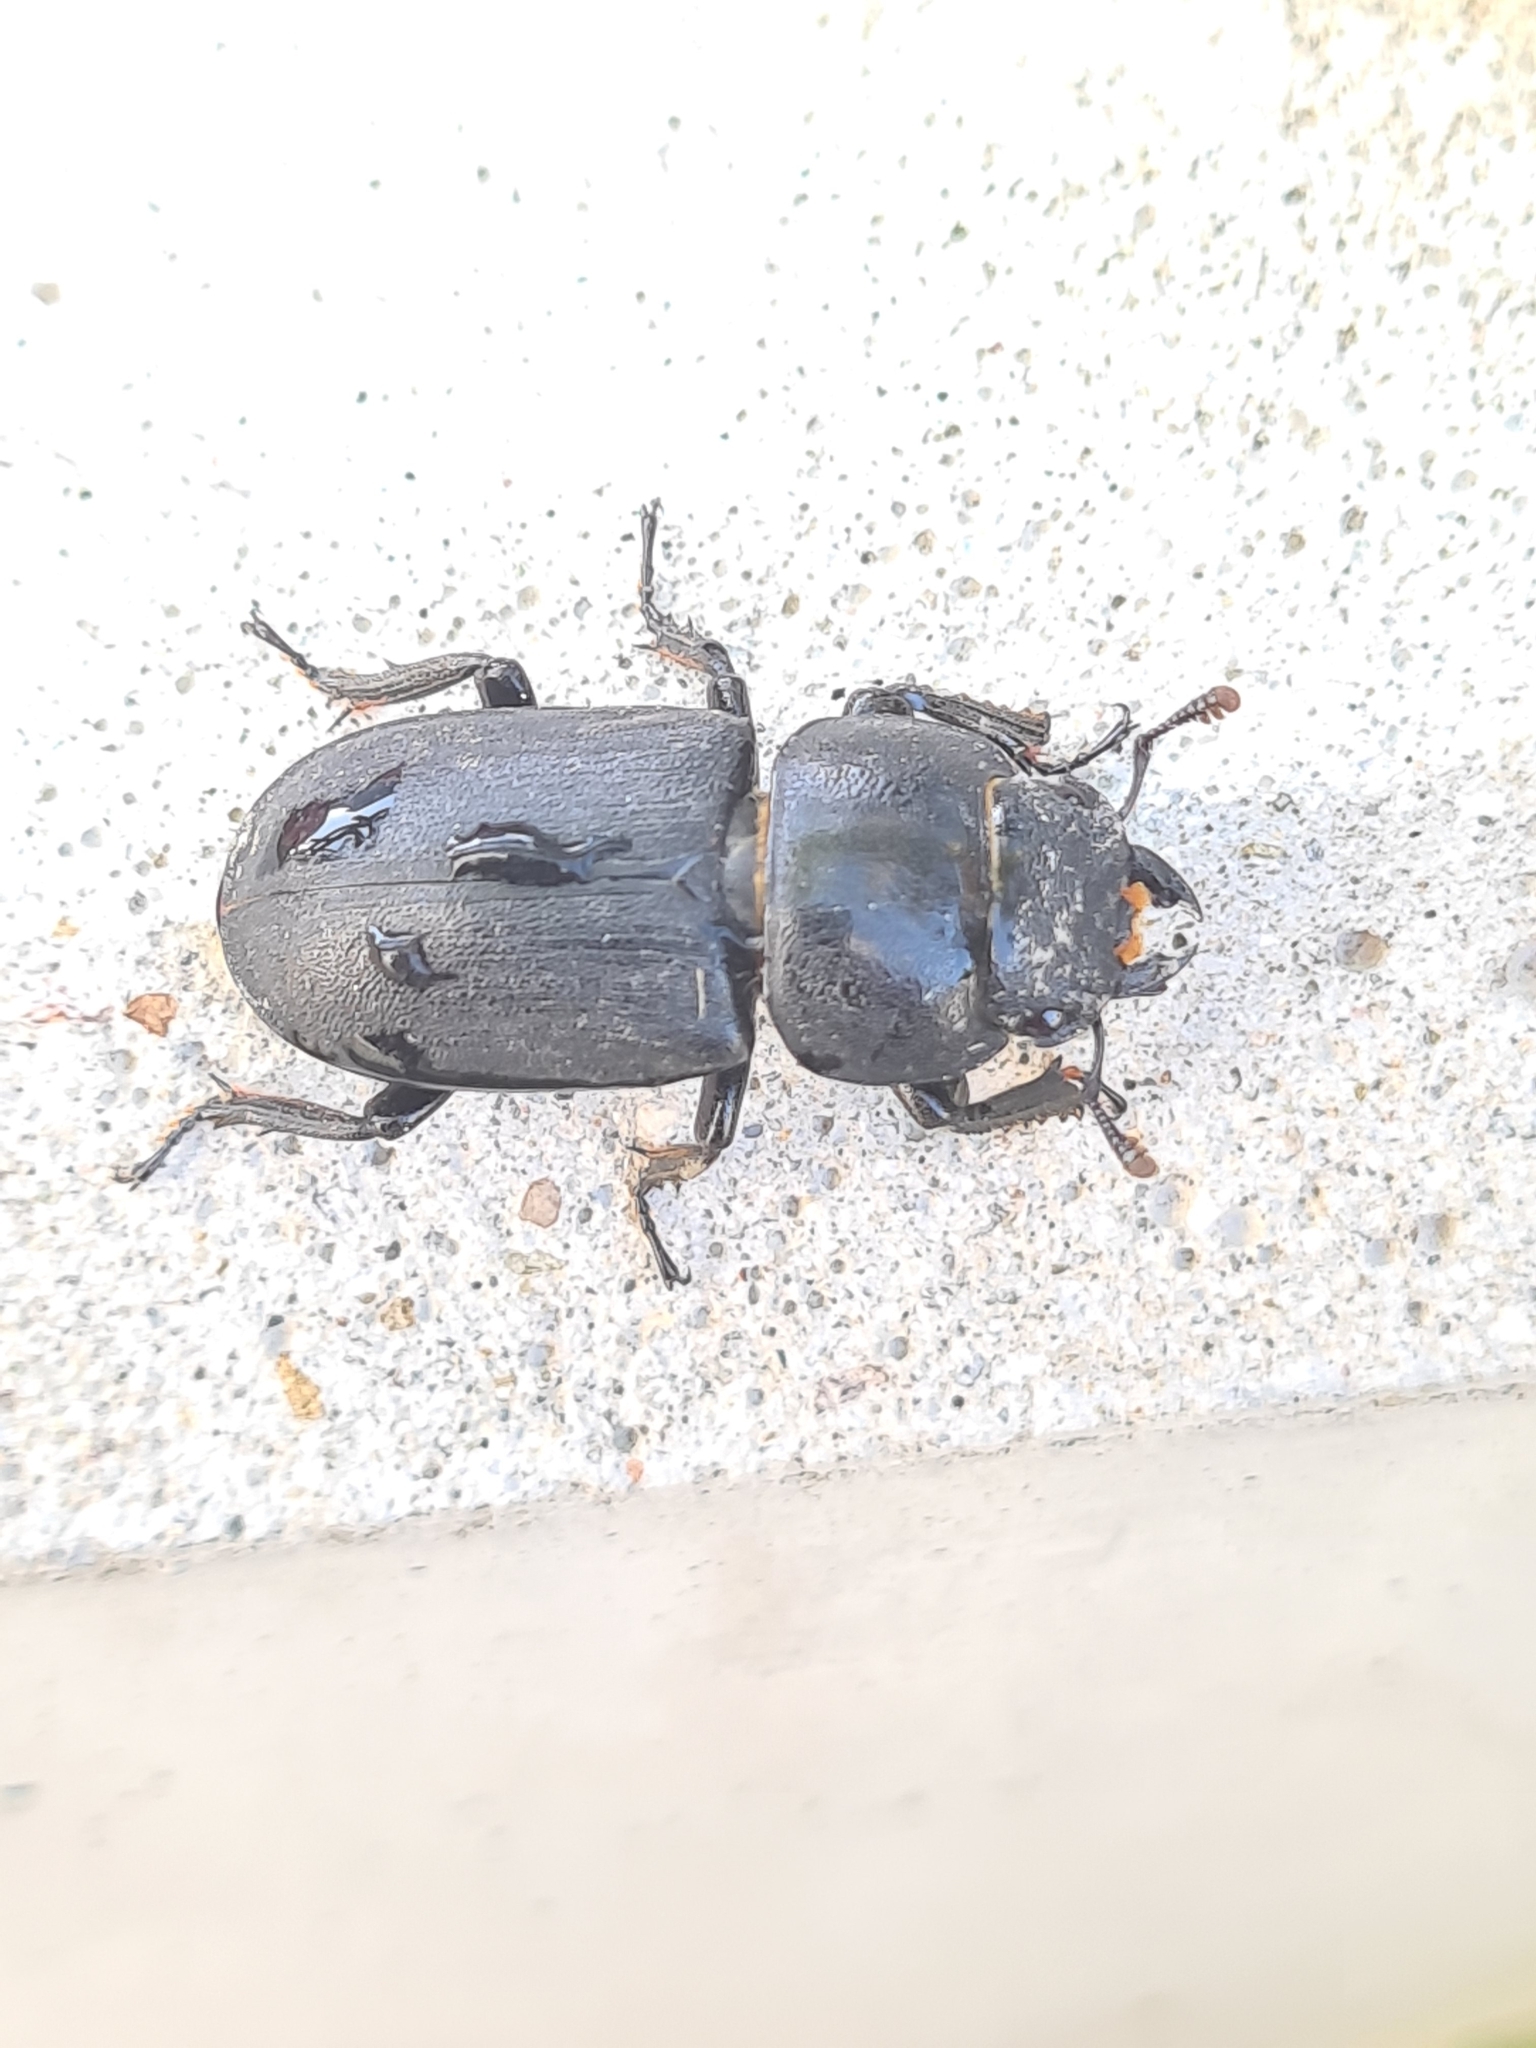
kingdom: Animalia
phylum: Arthropoda
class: Insecta
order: Coleoptera
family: Lucanidae
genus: Dorcus
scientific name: Dorcus parallelipipedus
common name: Lesser stag beetle
